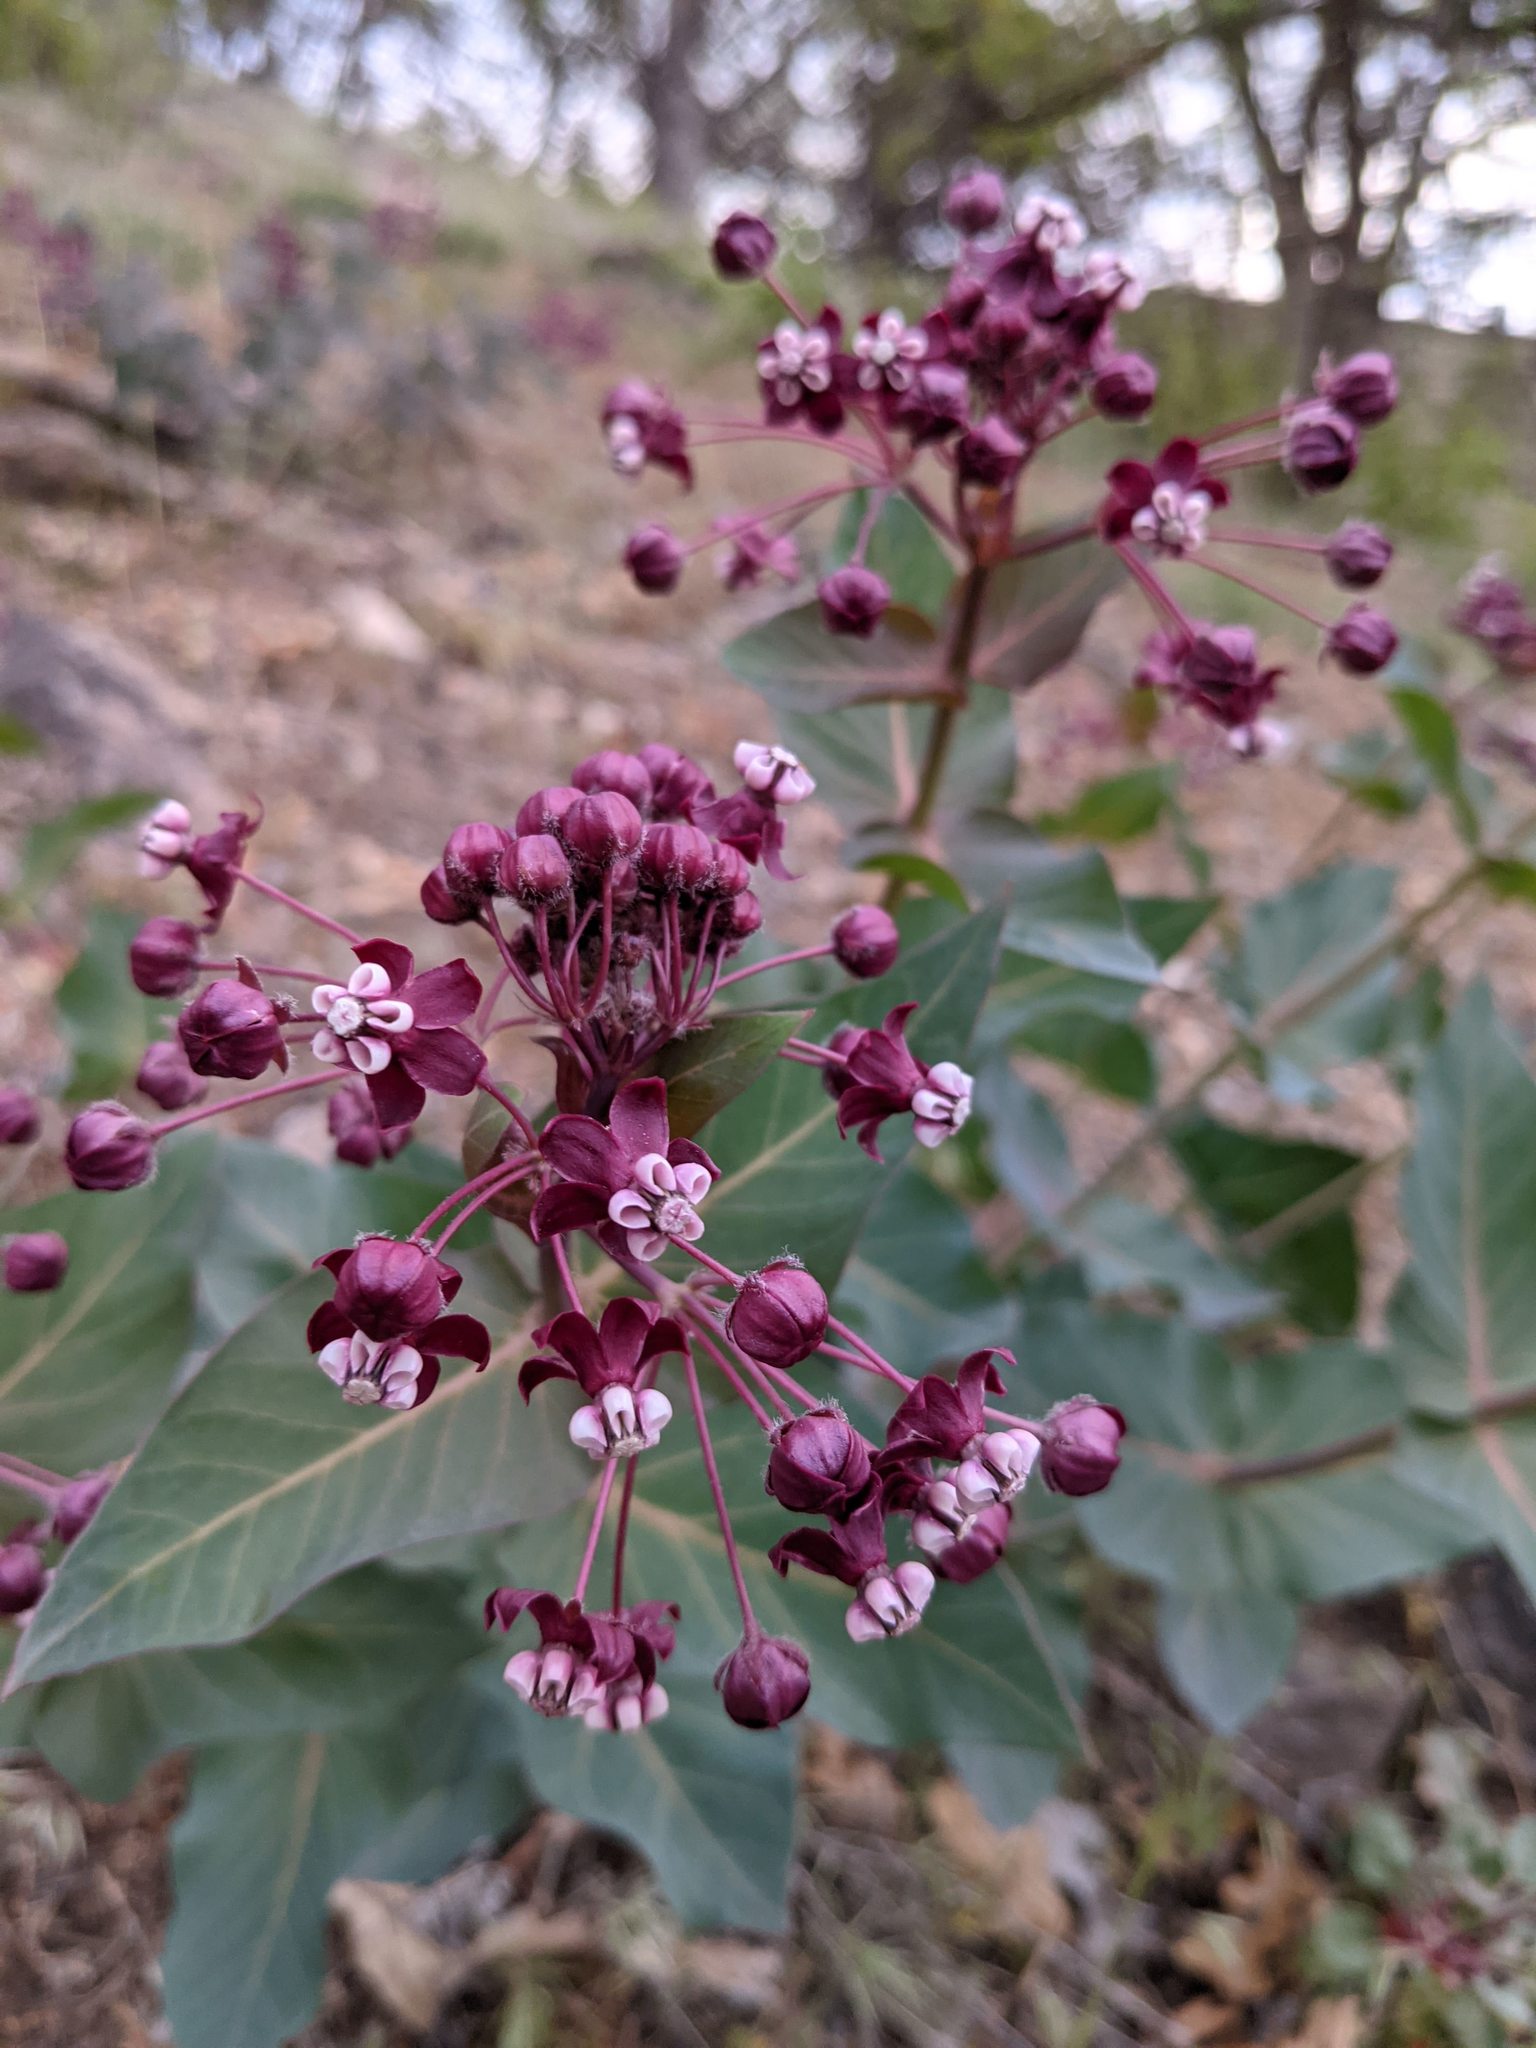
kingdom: Plantae
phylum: Tracheophyta
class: Magnoliopsida
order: Gentianales
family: Apocynaceae
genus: Asclepias
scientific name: Asclepias cordifolia
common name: Purple milkweed
